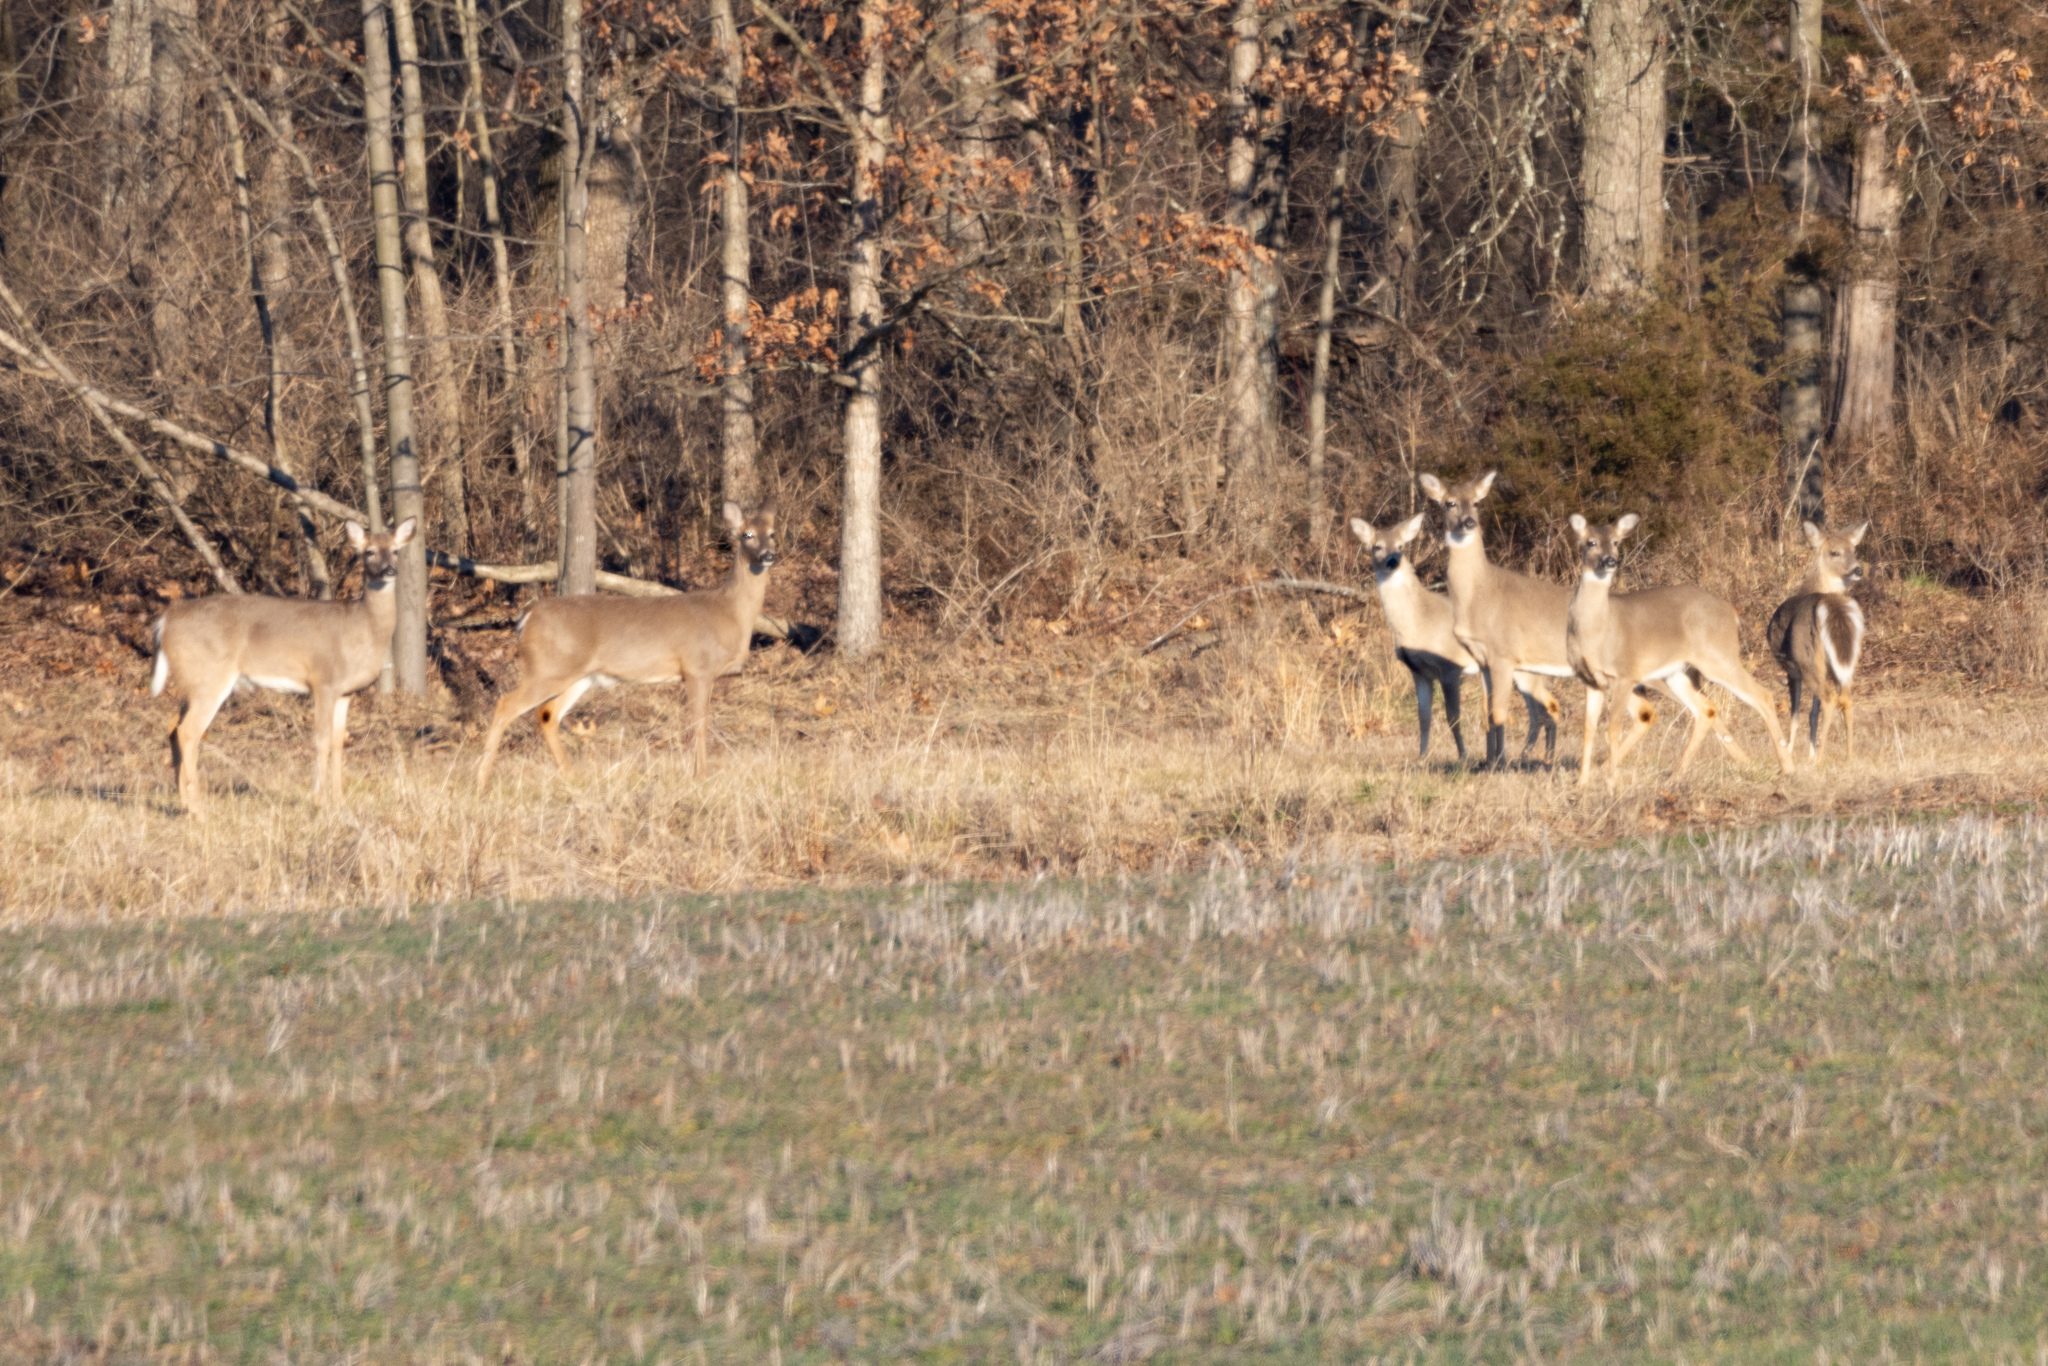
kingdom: Animalia
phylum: Chordata
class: Mammalia
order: Artiodactyla
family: Cervidae
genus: Odocoileus
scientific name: Odocoileus virginianus
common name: White-tailed deer
